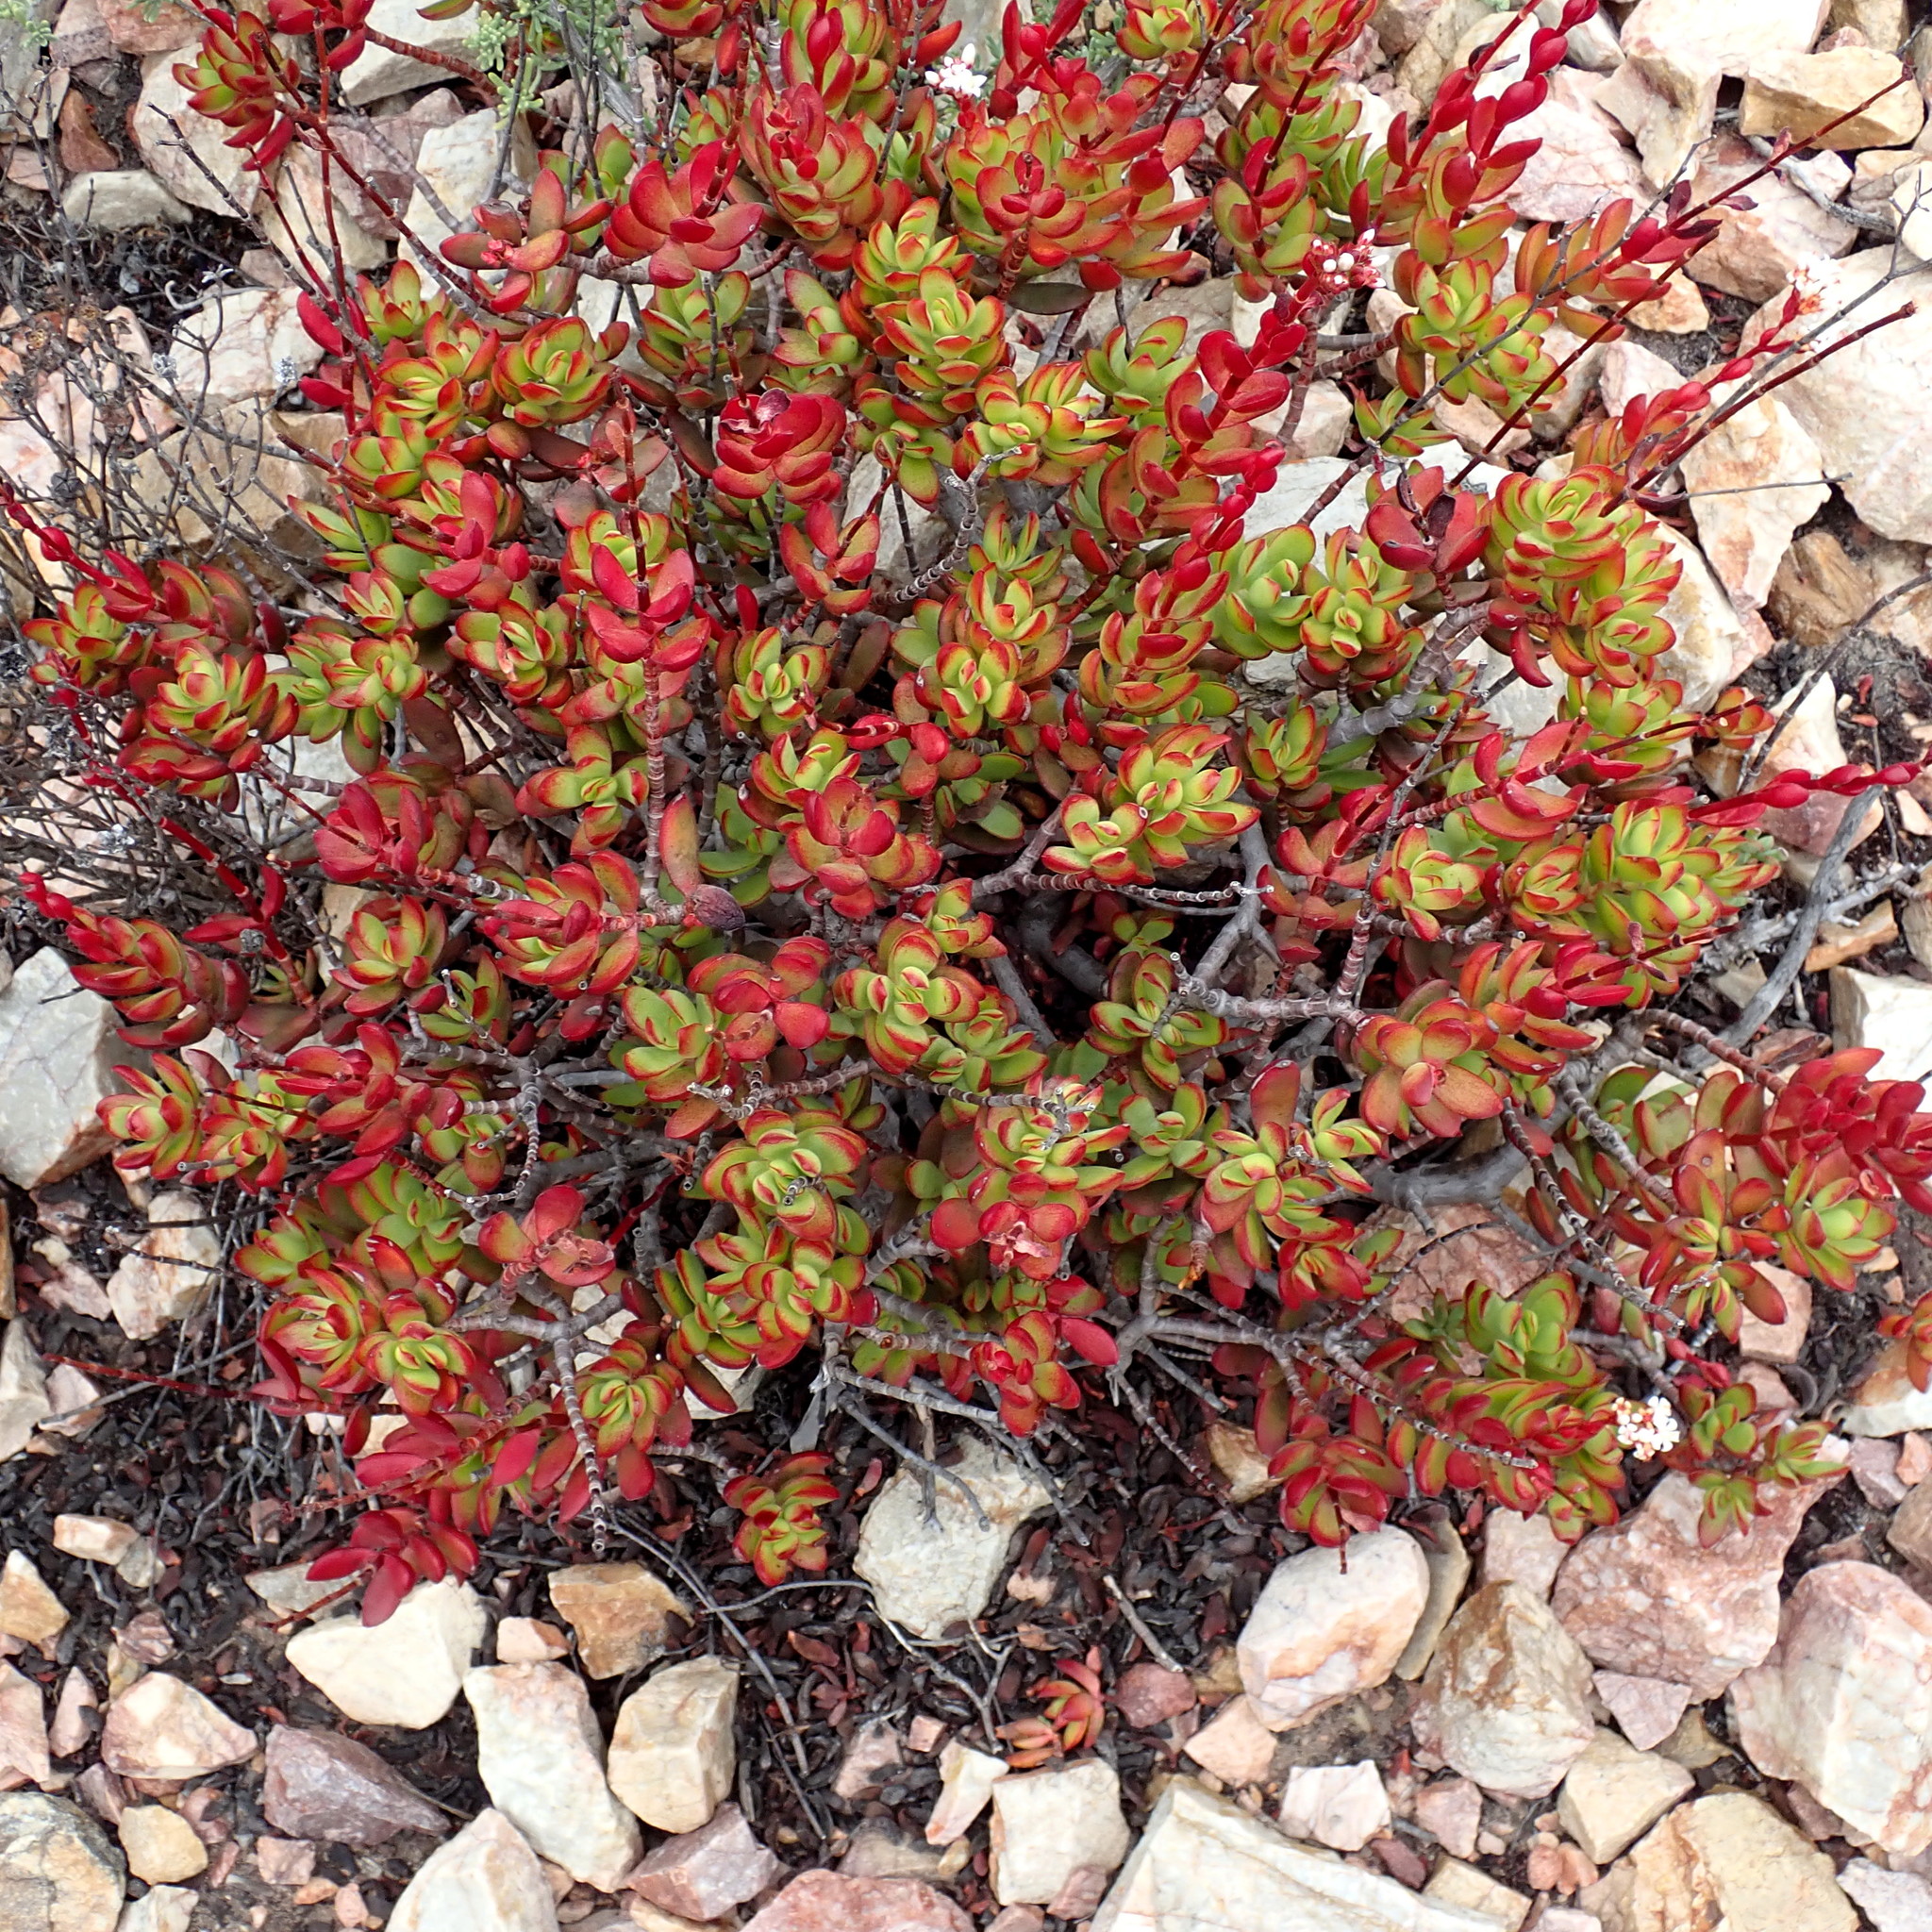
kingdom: Plantae
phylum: Tracheophyta
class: Magnoliopsida
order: Saxifragales
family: Crassulaceae
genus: Crassula
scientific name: Crassula rubricaulis
